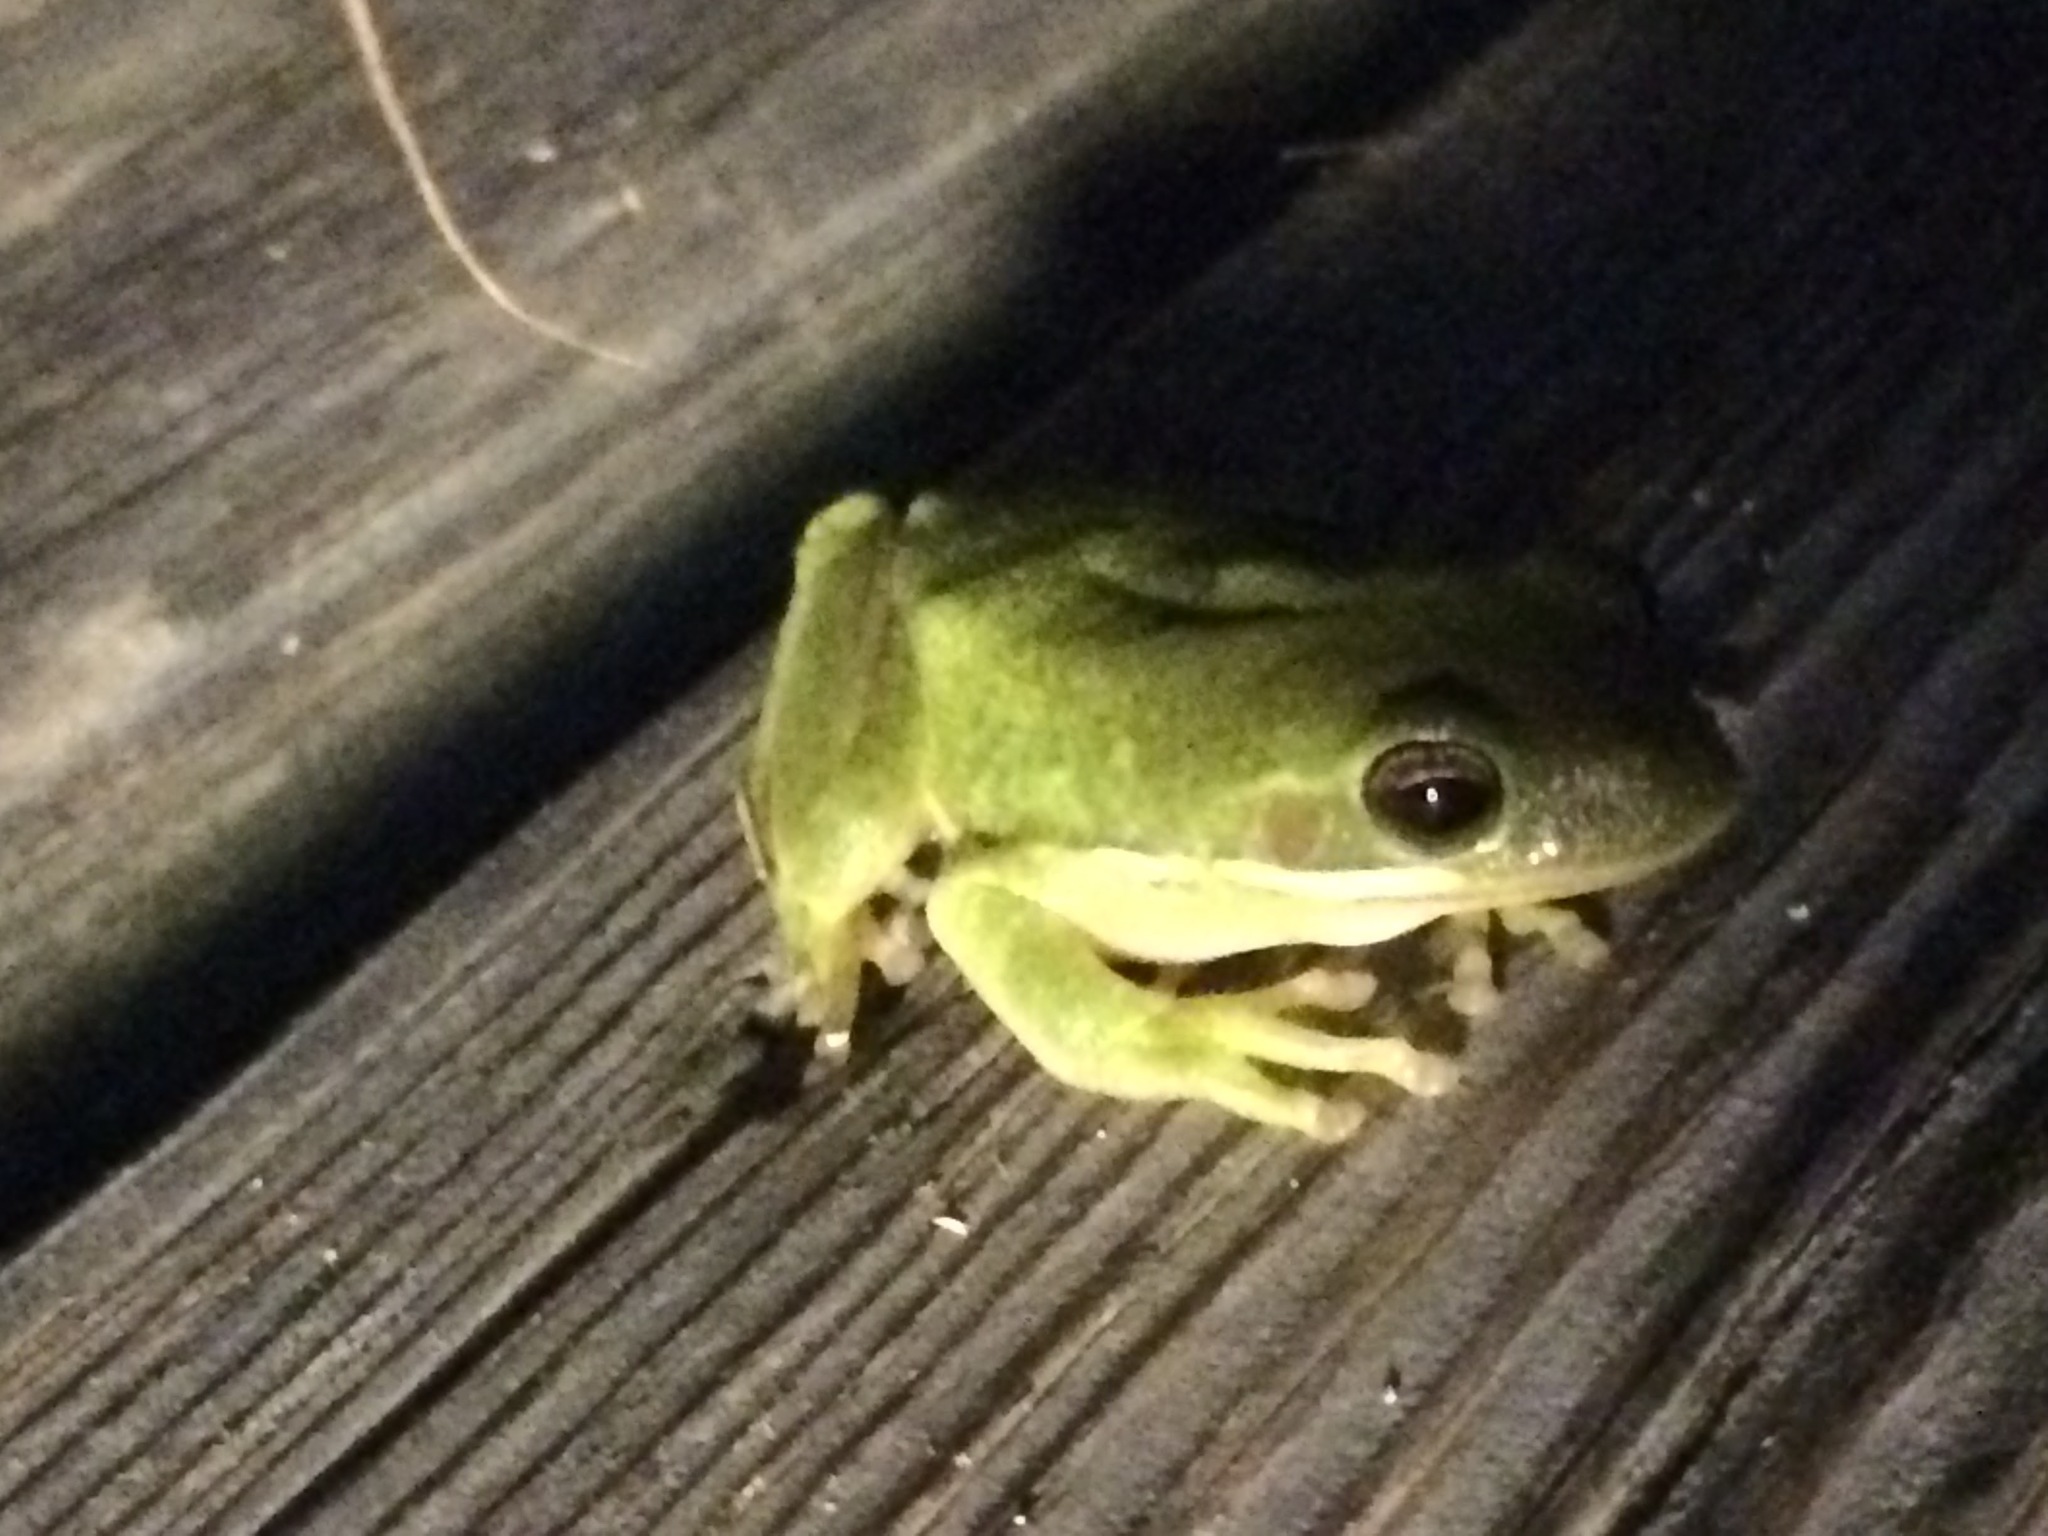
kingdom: Animalia
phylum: Chordata
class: Amphibia
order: Anura
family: Hylidae
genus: Dryophytes
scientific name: Dryophytes cinereus
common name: Green treefrog
